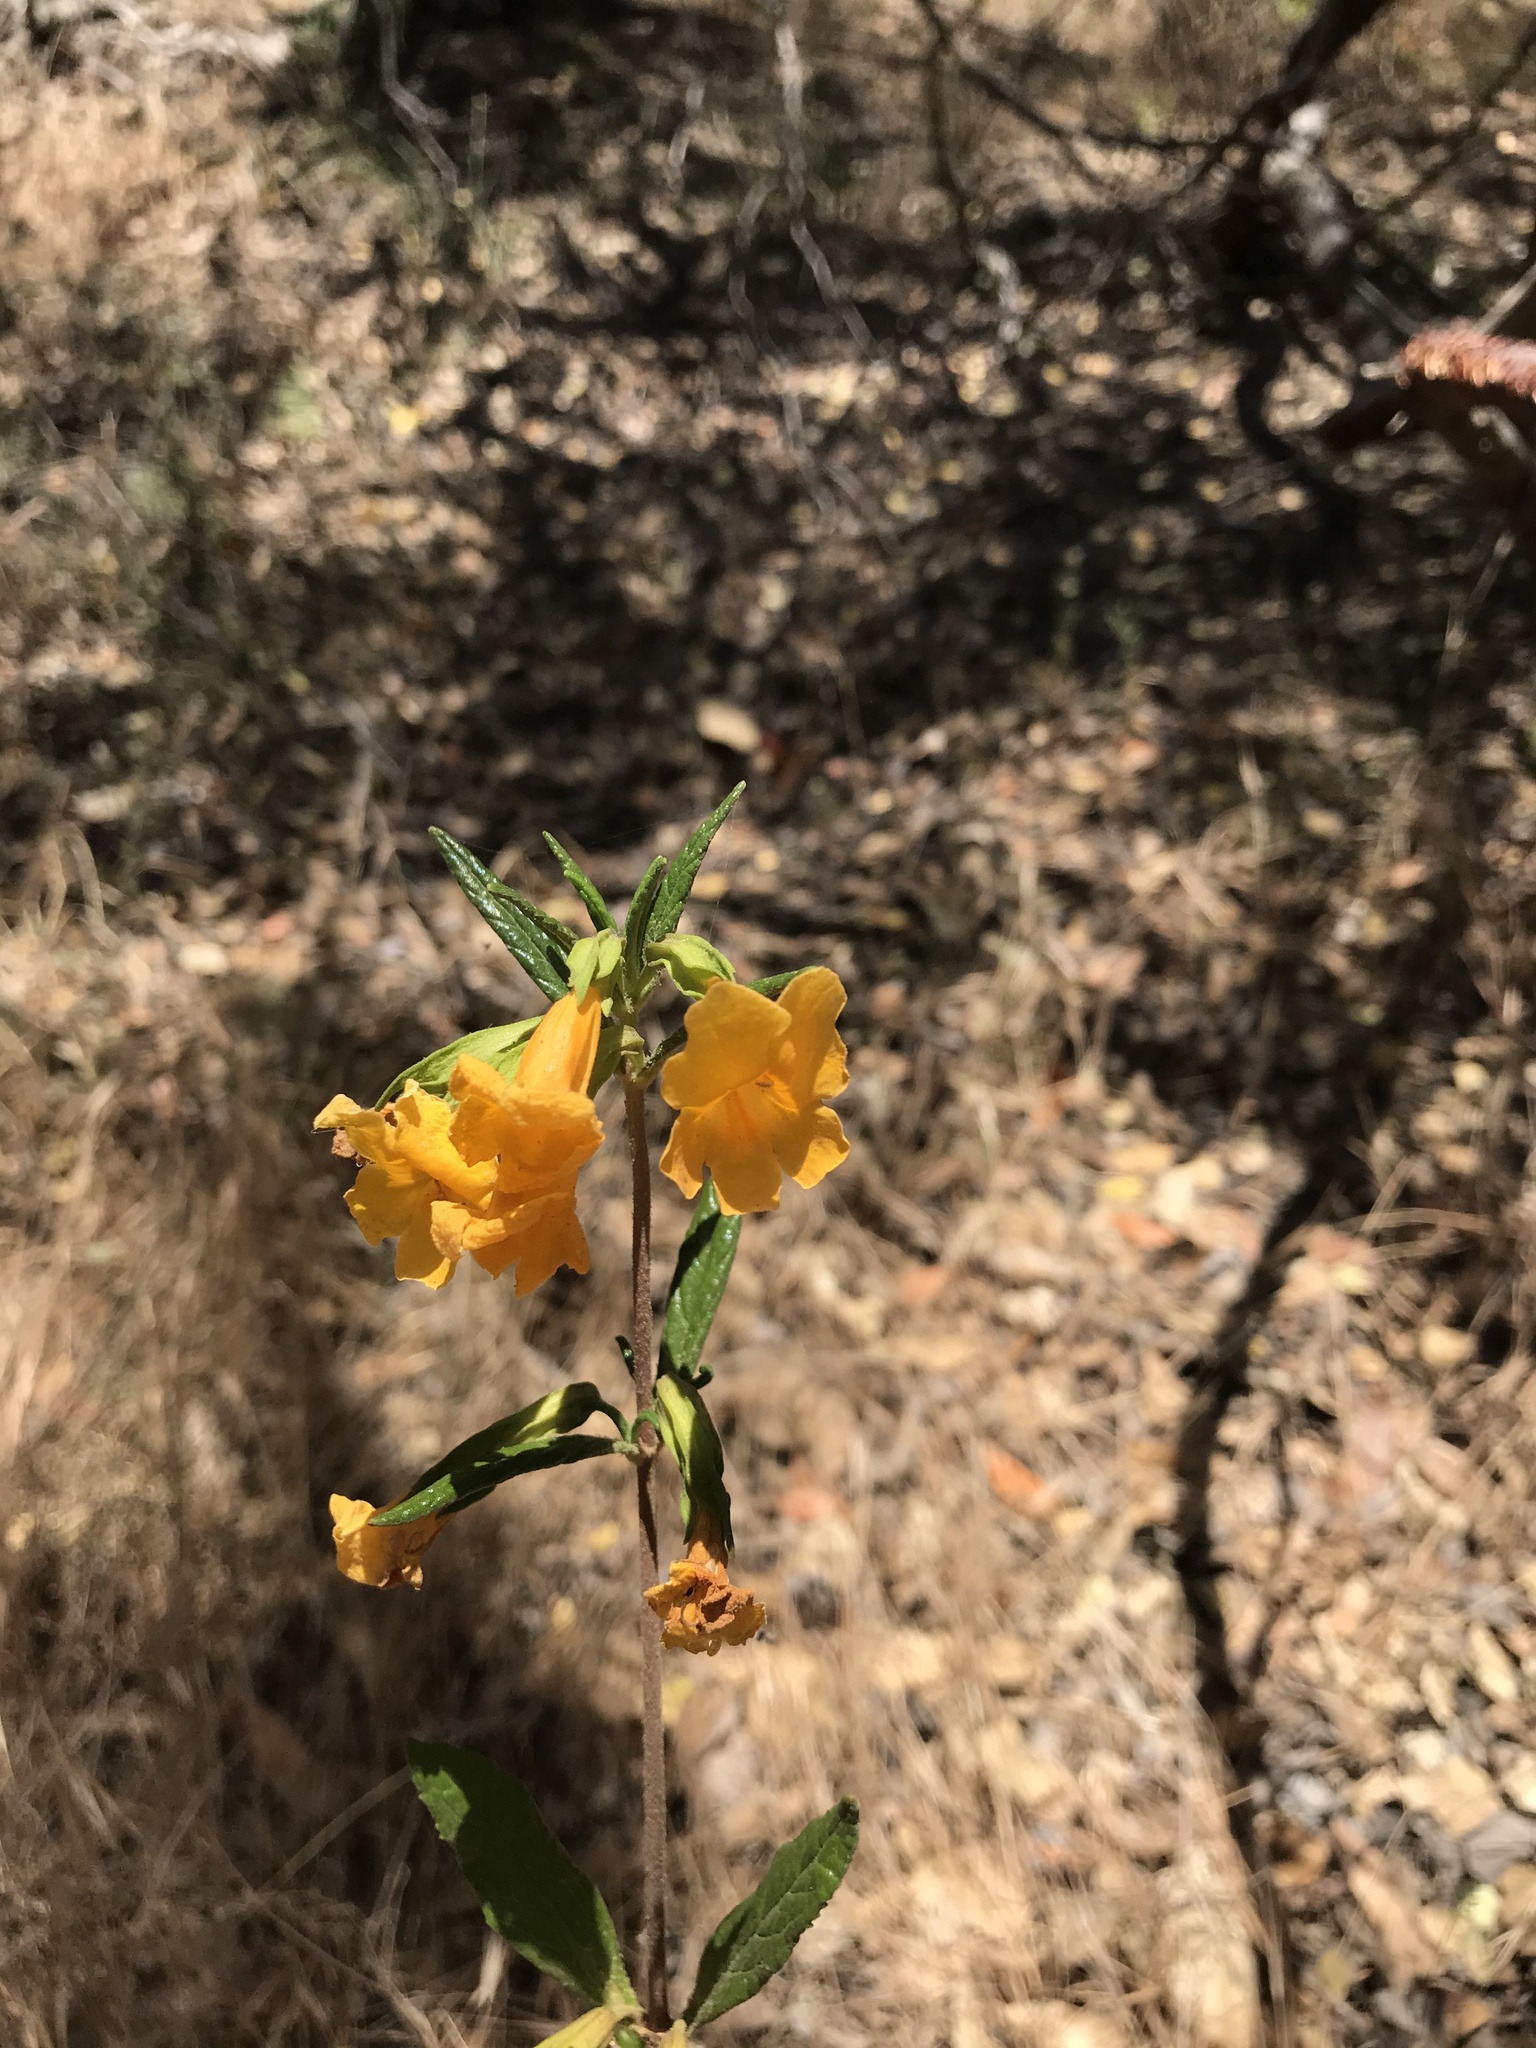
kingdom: Plantae
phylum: Tracheophyta
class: Magnoliopsida
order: Lamiales
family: Phrymaceae
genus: Diplacus
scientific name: Diplacus aurantiacus
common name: Bush monkey-flower
